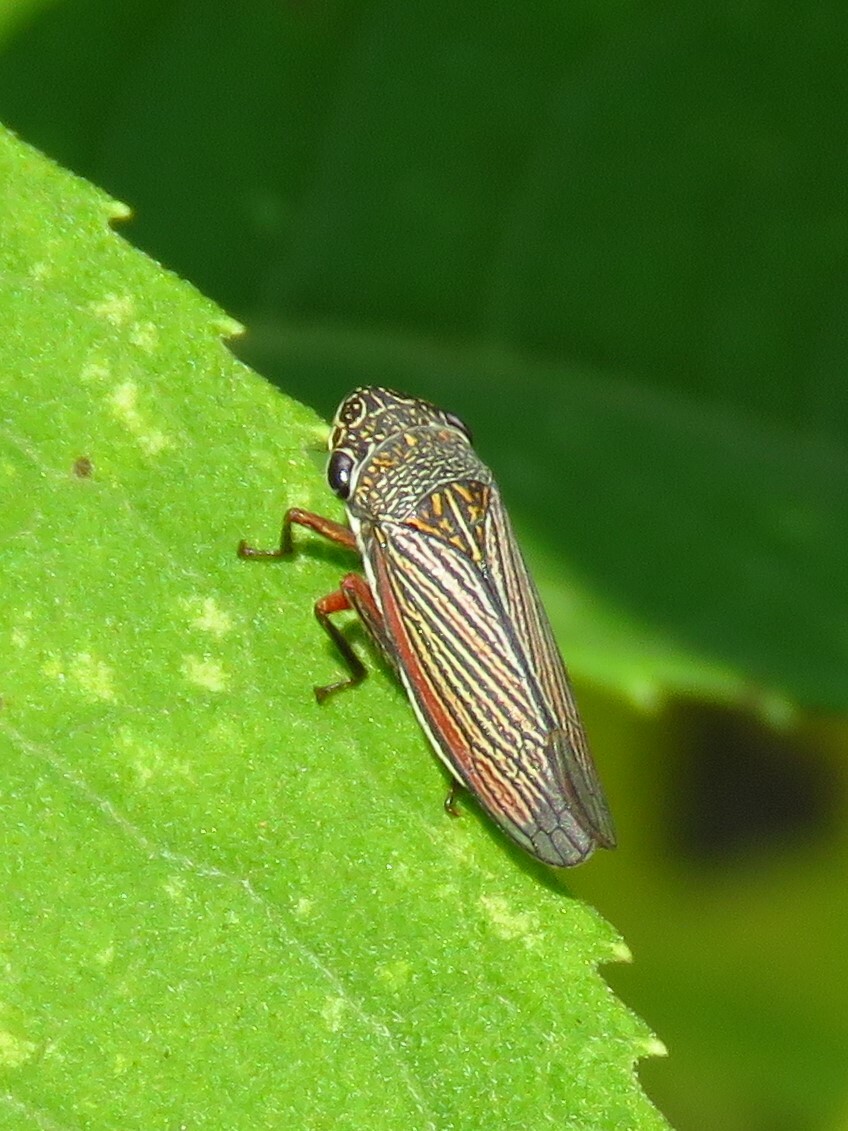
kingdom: Animalia
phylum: Arthropoda
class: Insecta
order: Hemiptera
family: Cicadellidae
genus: Cuerna
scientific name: Cuerna costalis
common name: Lateral-lined sharpshooter
